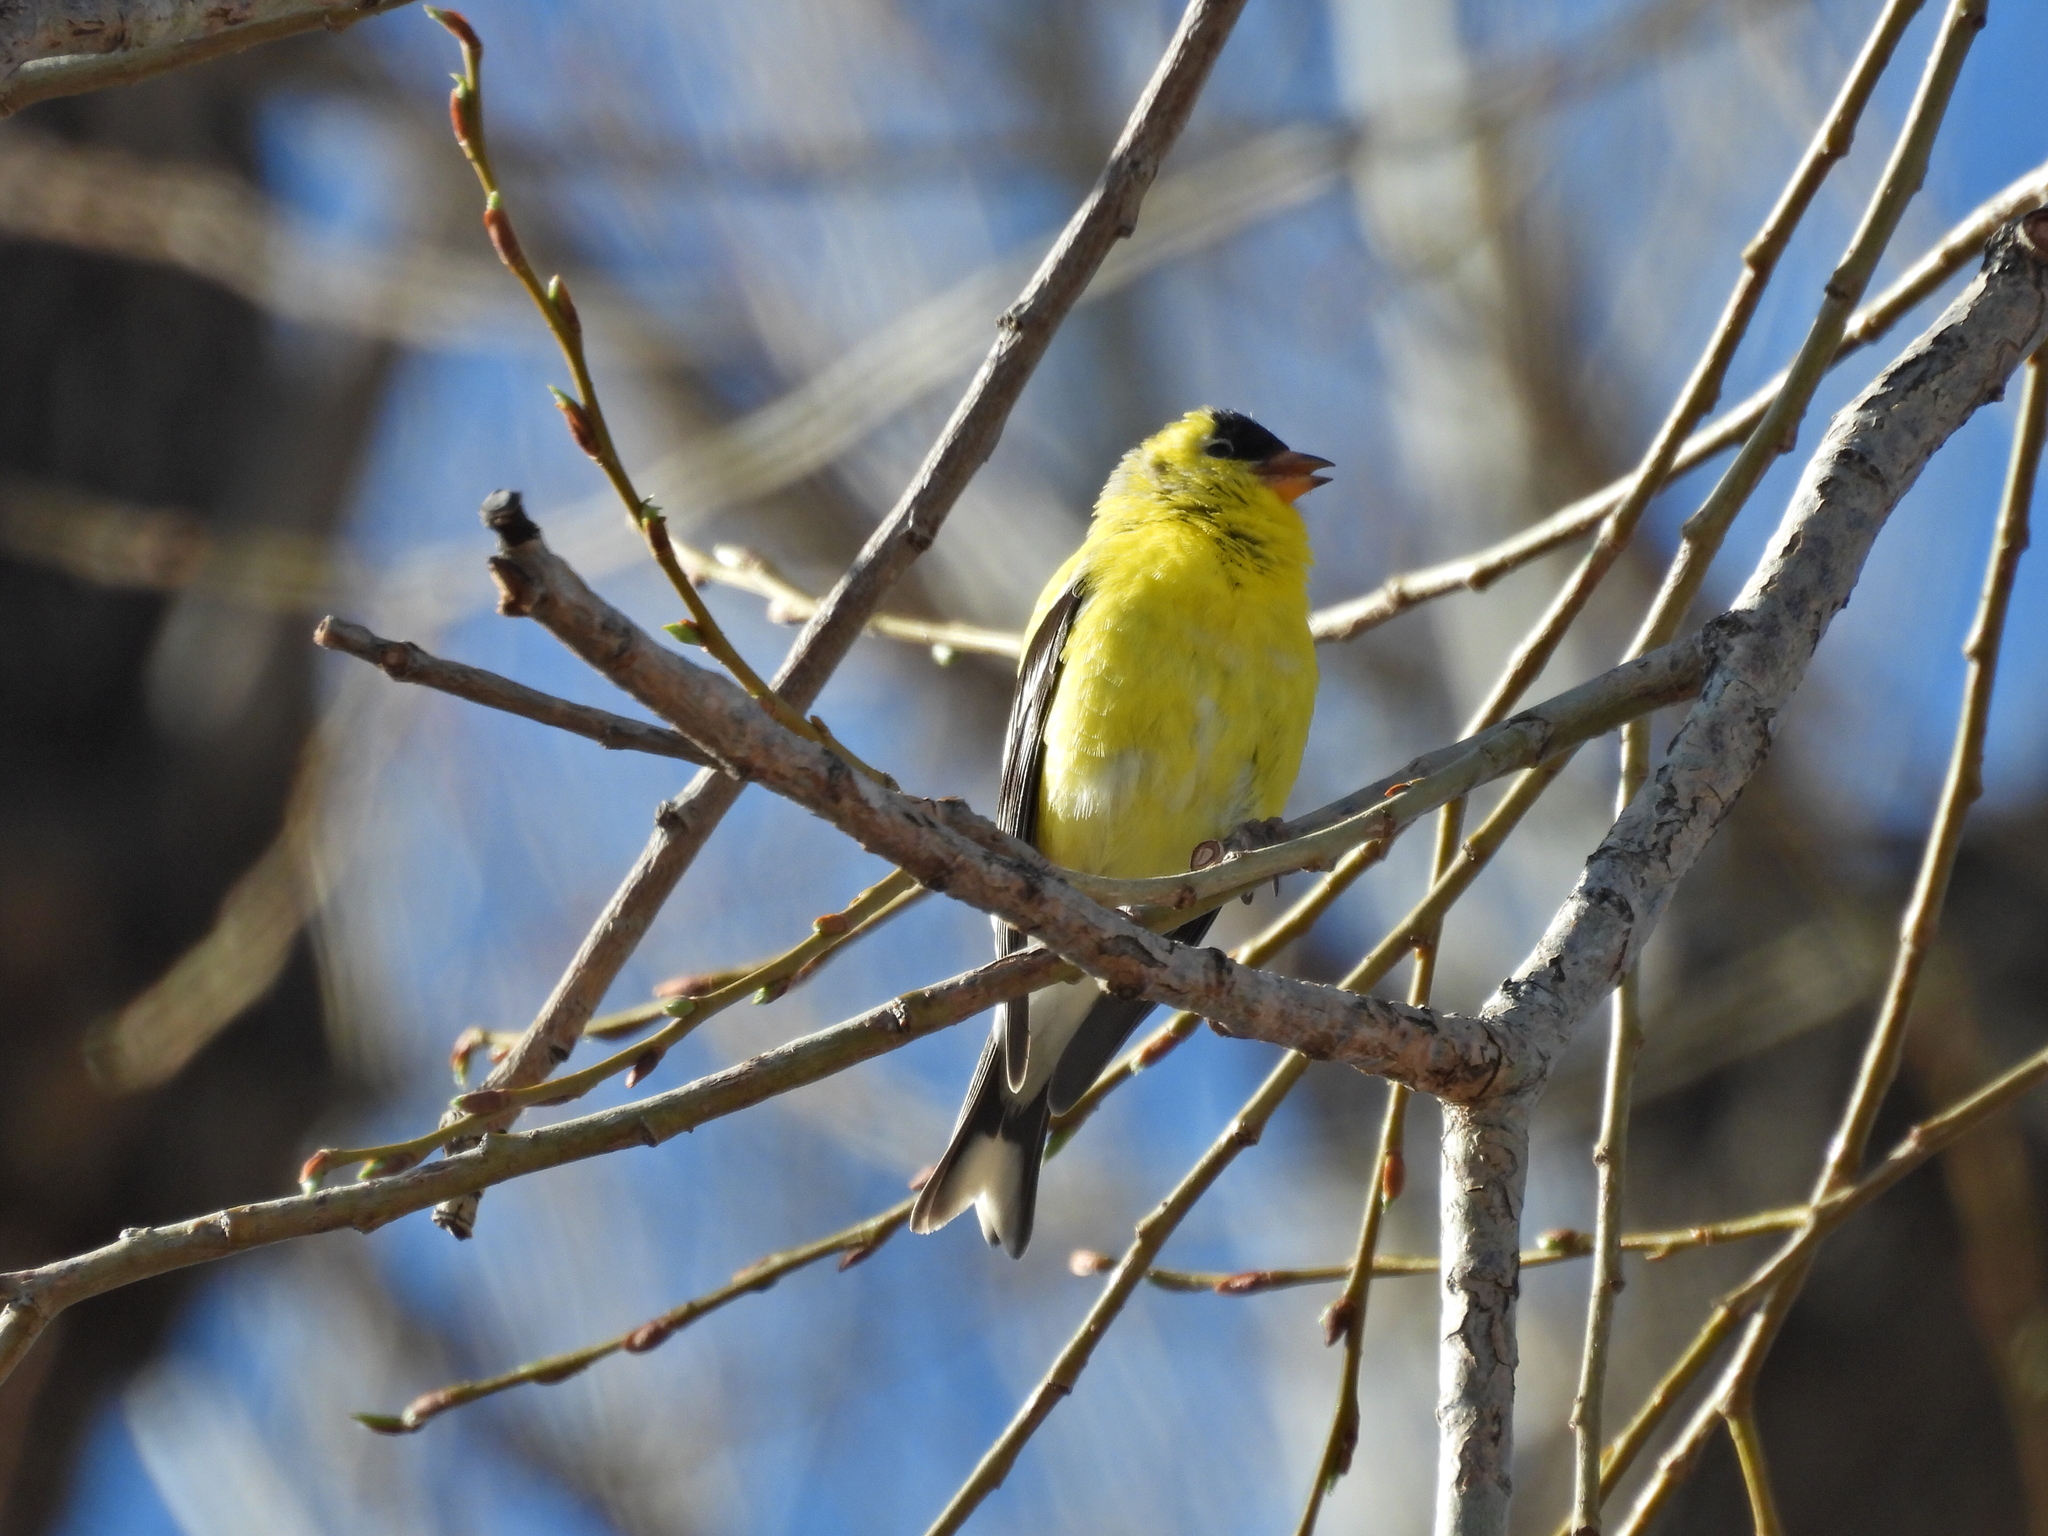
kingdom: Animalia
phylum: Chordata
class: Aves
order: Passeriformes
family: Fringillidae
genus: Spinus
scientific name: Spinus tristis
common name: American goldfinch
